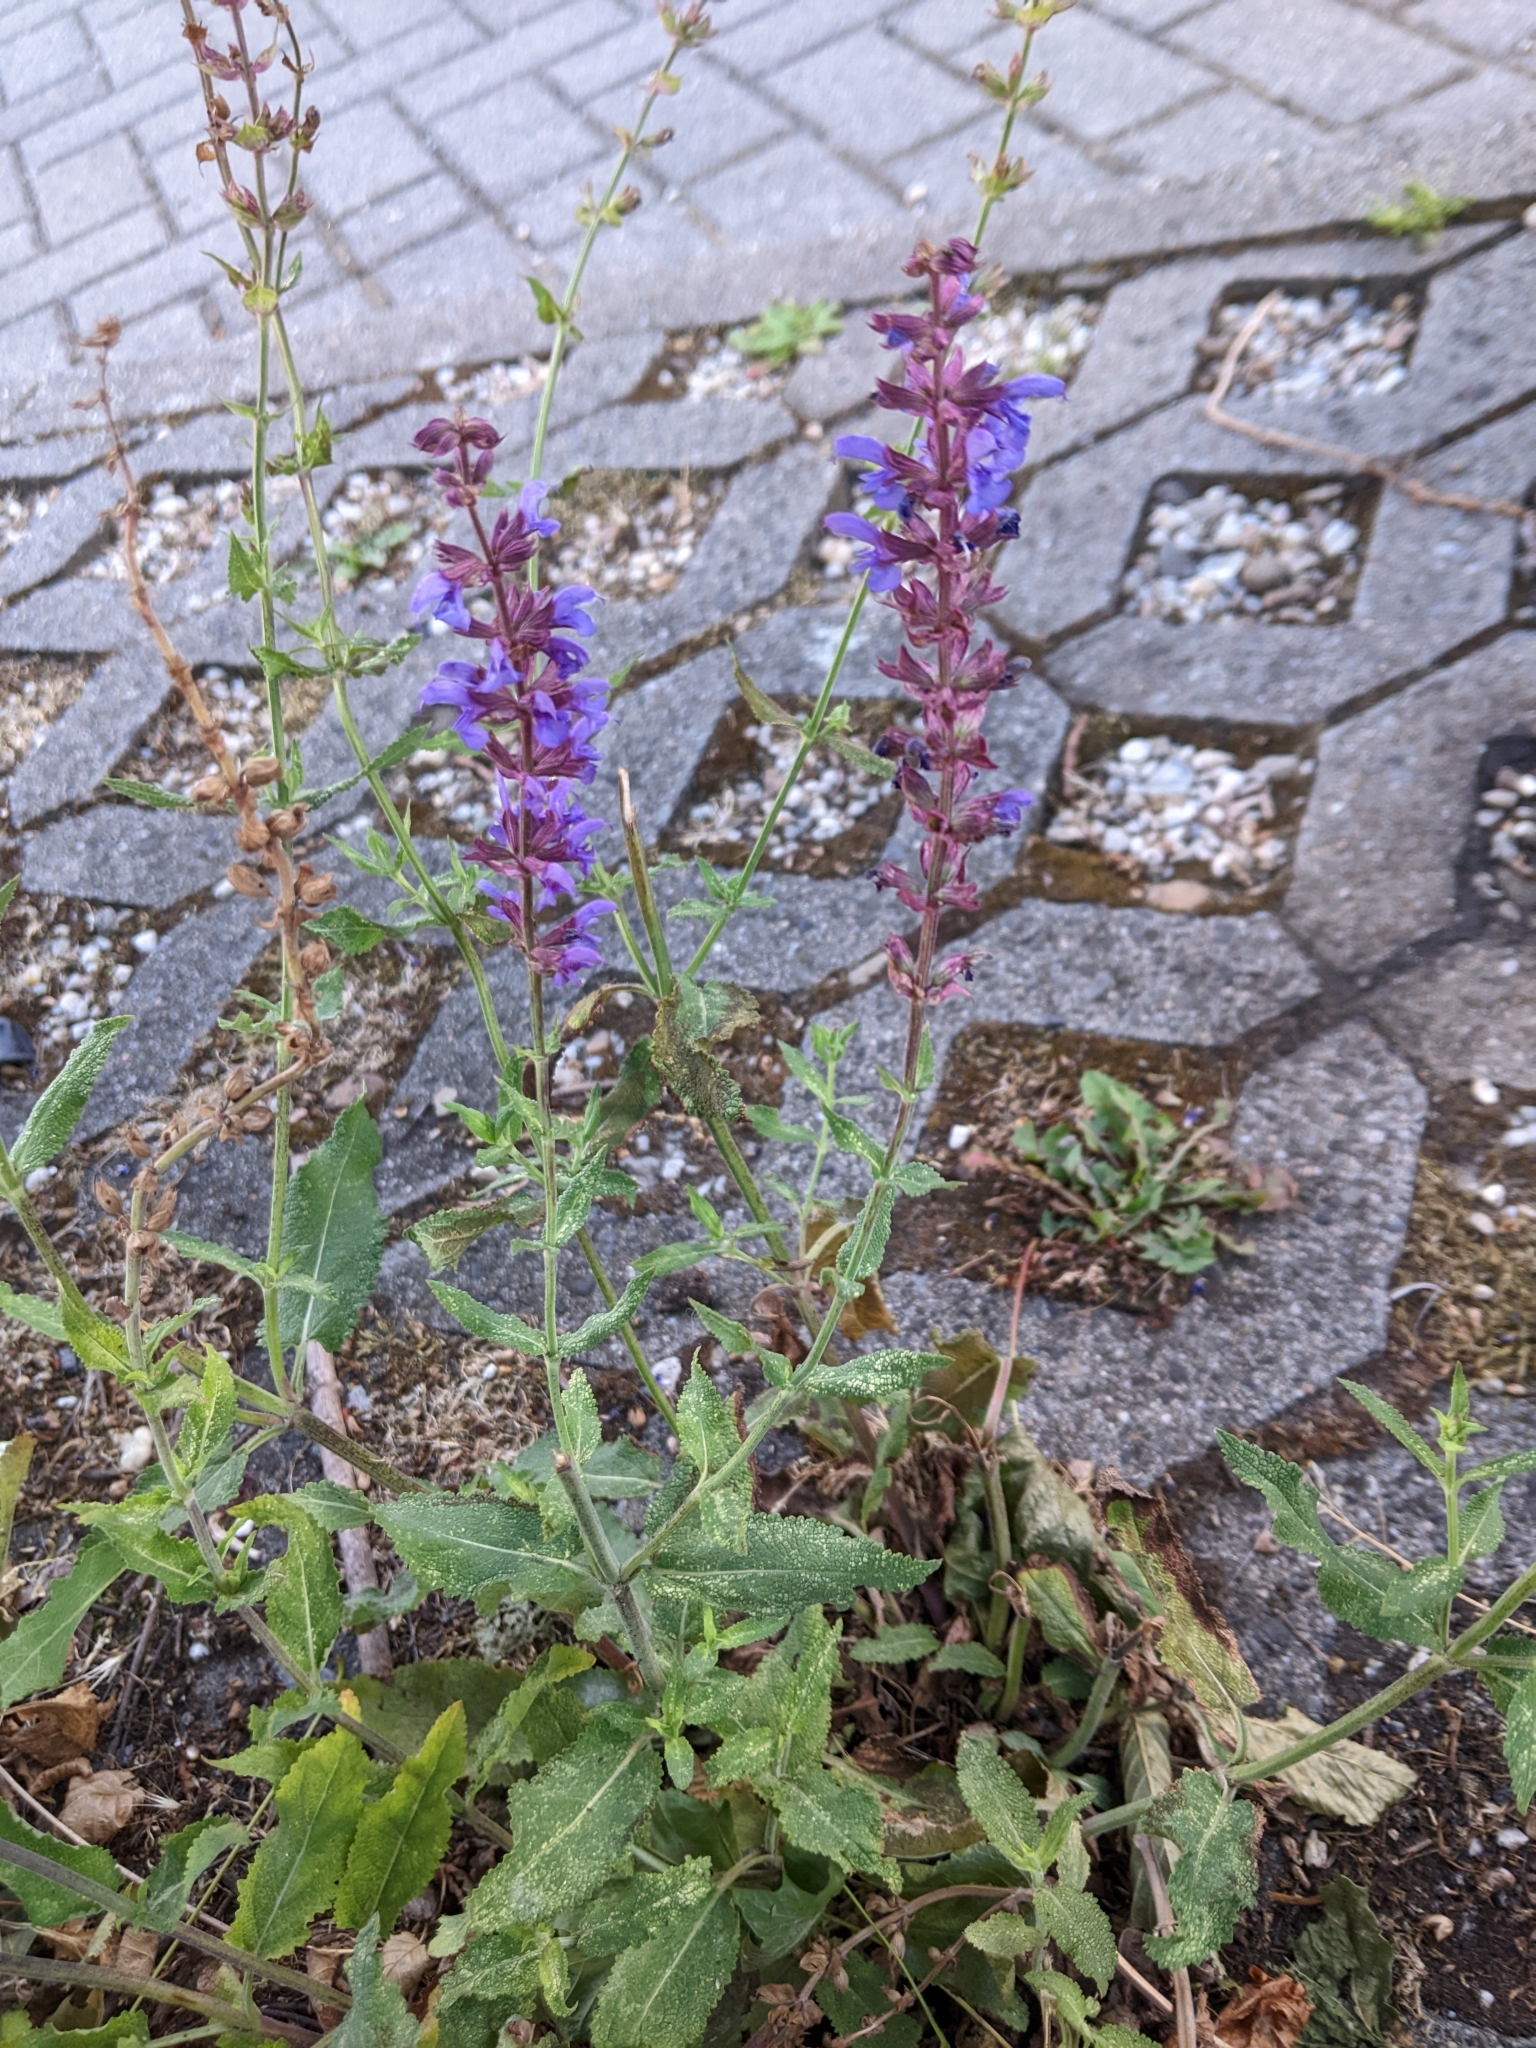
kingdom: Plantae
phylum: Tracheophyta
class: Magnoliopsida
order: Lamiales
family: Lamiaceae
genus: Salvia
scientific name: Salvia nemorosa
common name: Balkan clary
